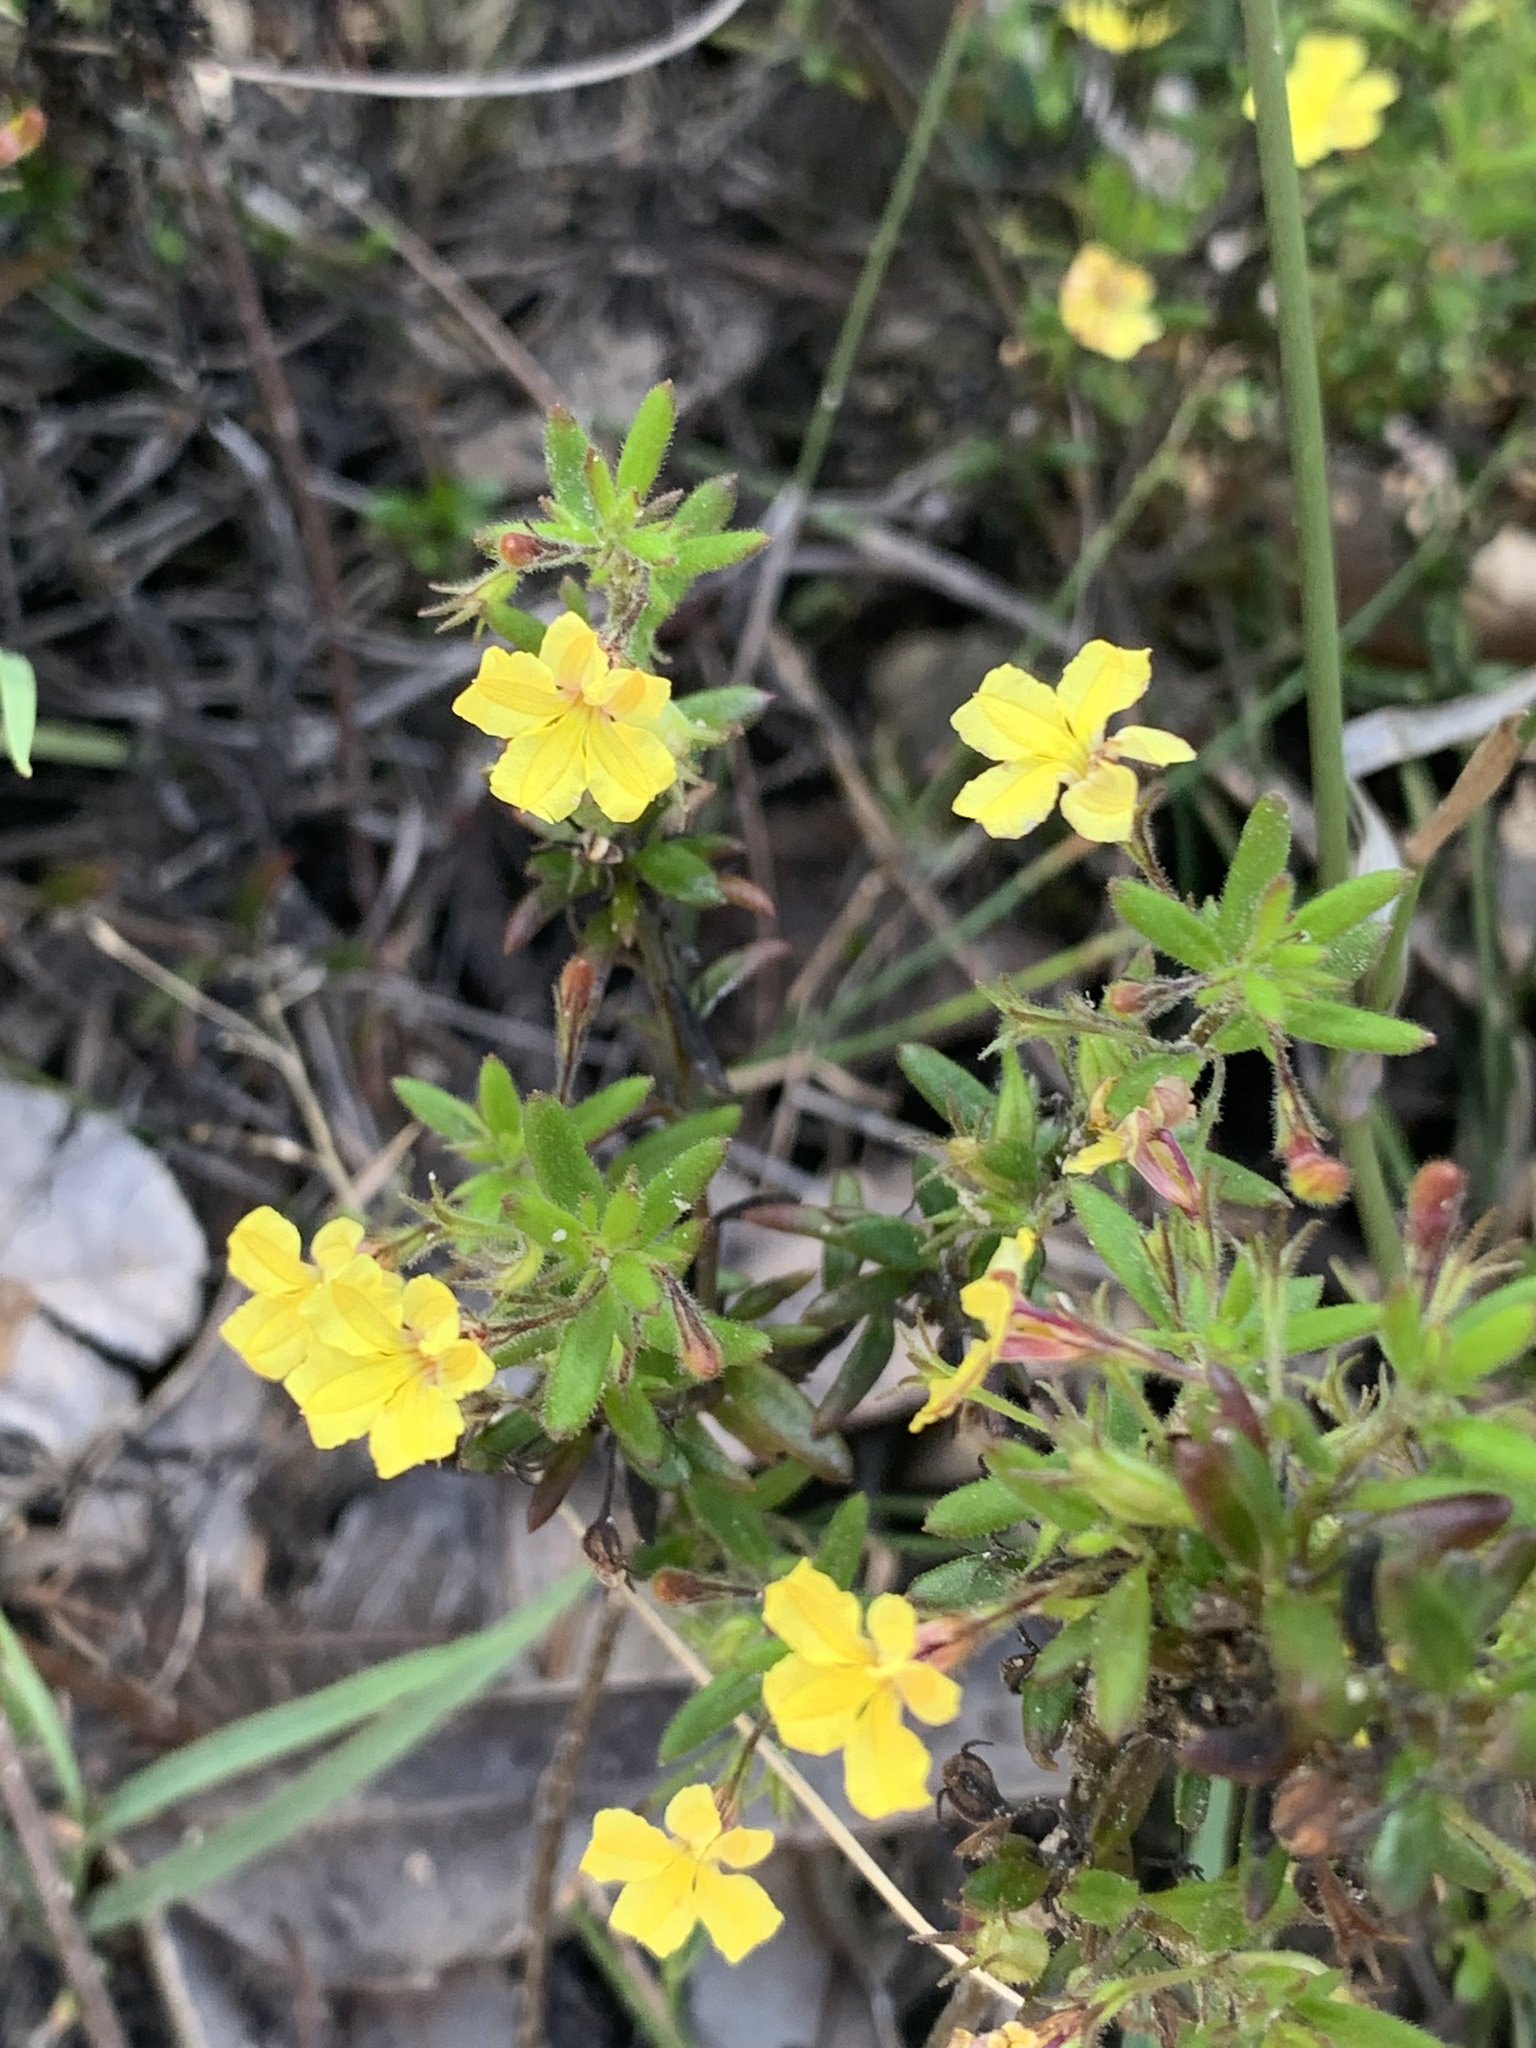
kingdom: Plantae
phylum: Tracheophyta
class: Magnoliopsida
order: Asterales
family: Goodeniaceae
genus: Goodenia
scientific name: Goodenia heterophylla
